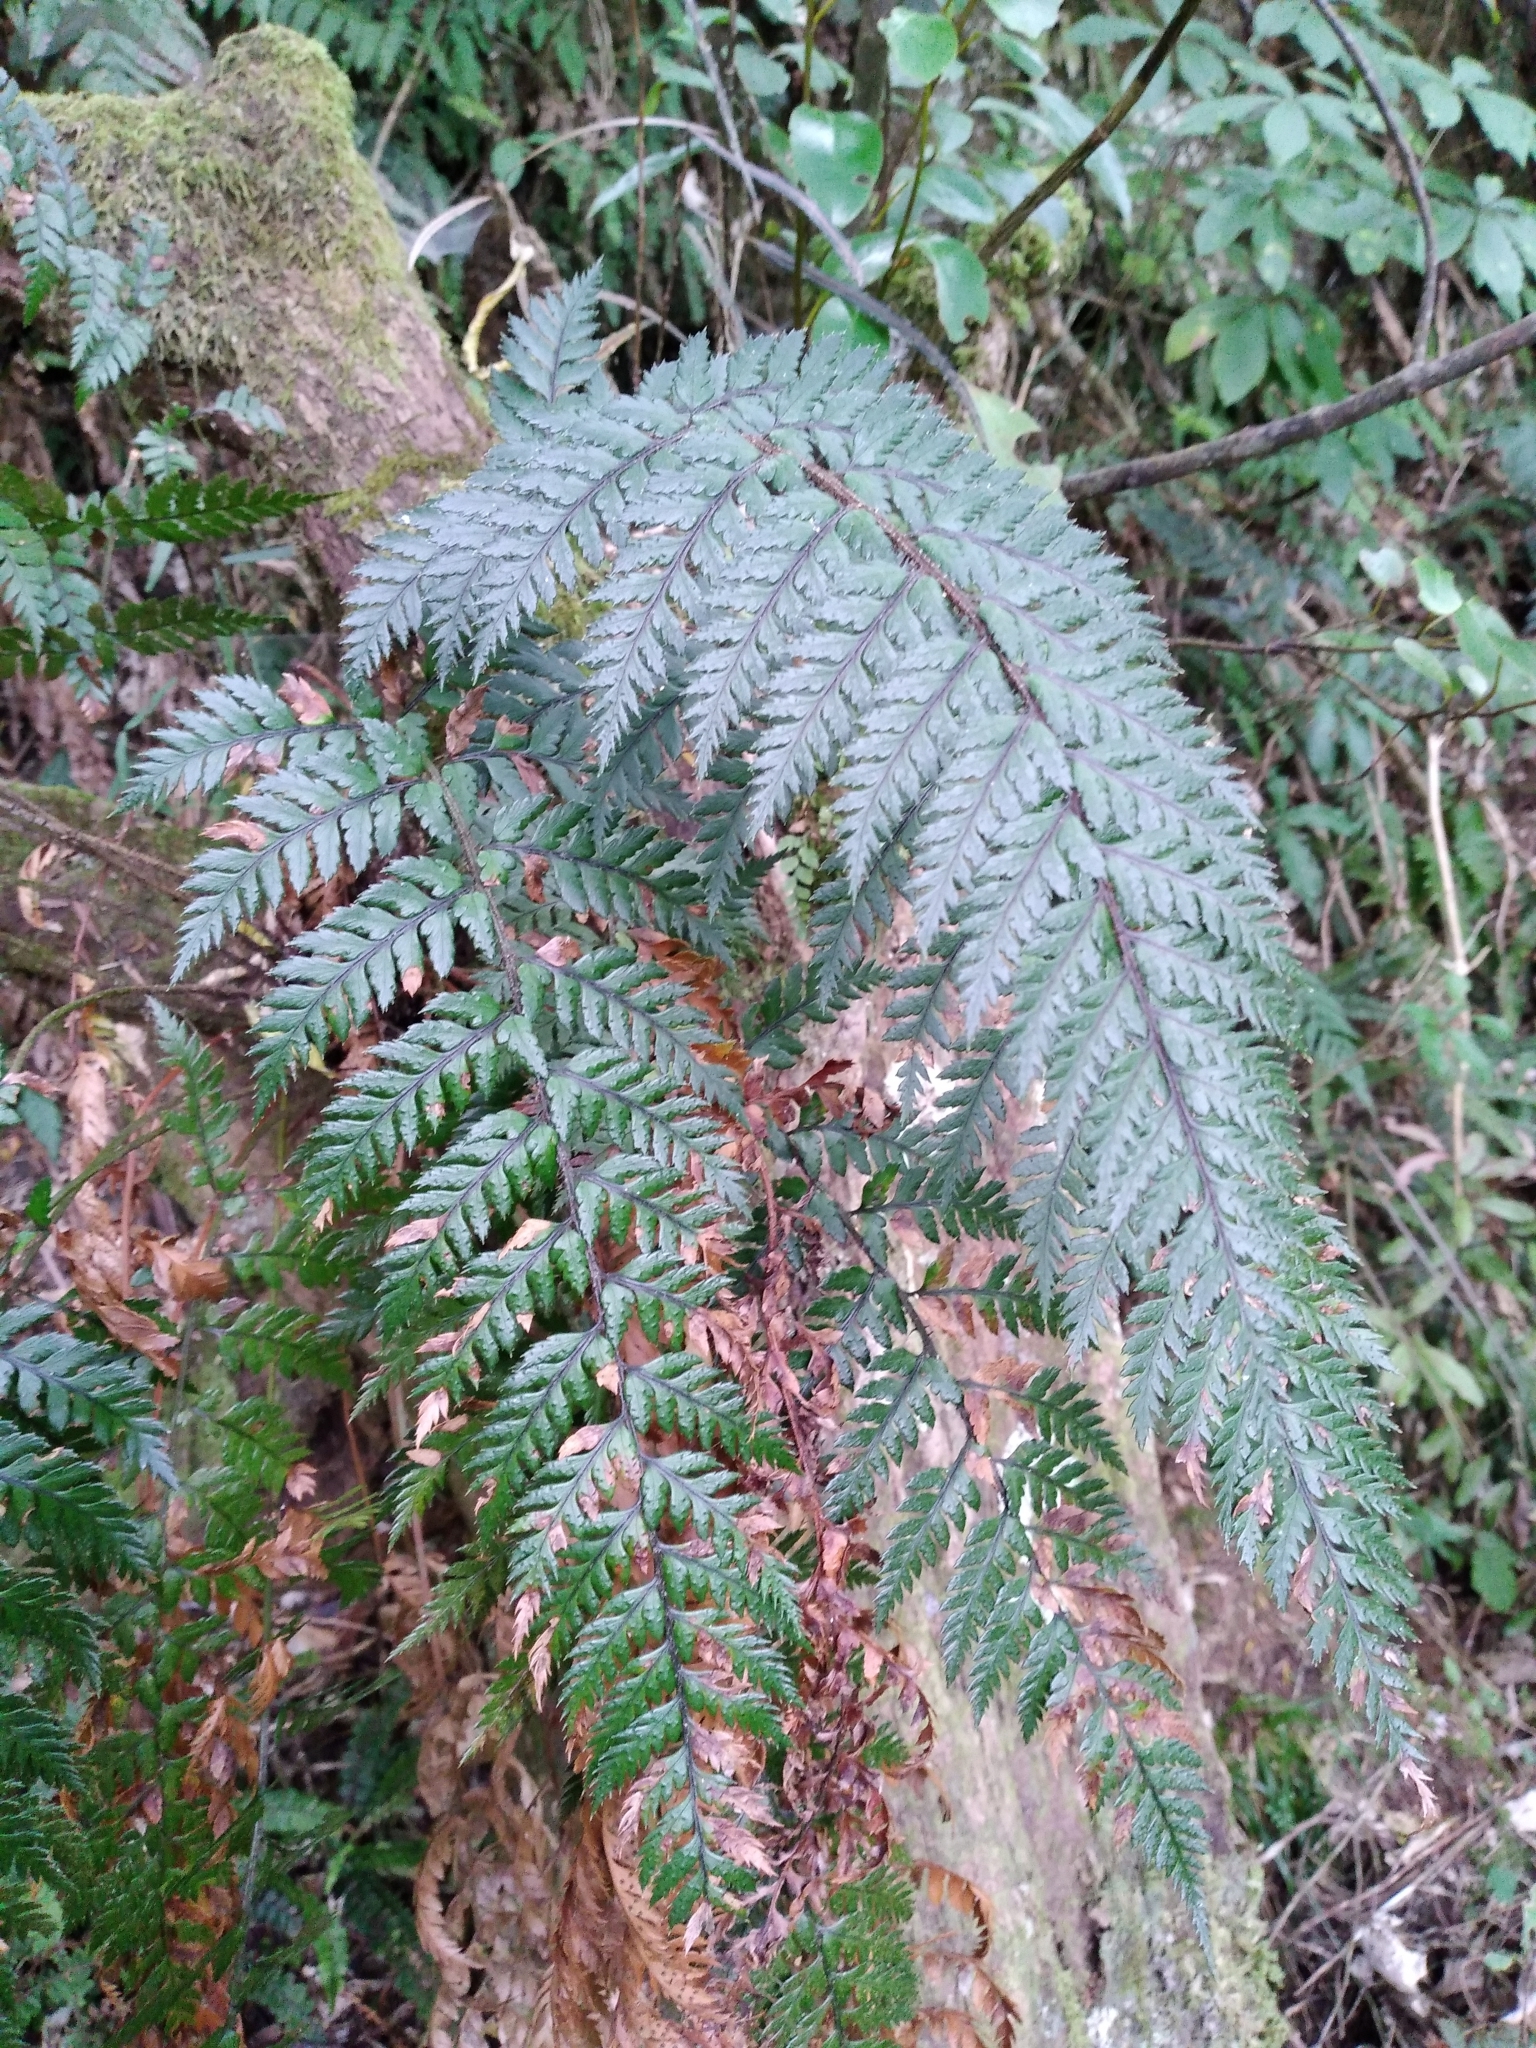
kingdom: Plantae
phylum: Tracheophyta
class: Polypodiopsida
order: Polypodiales
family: Dryopteridaceae
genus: Polystichum
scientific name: Polystichum neozelandicum
